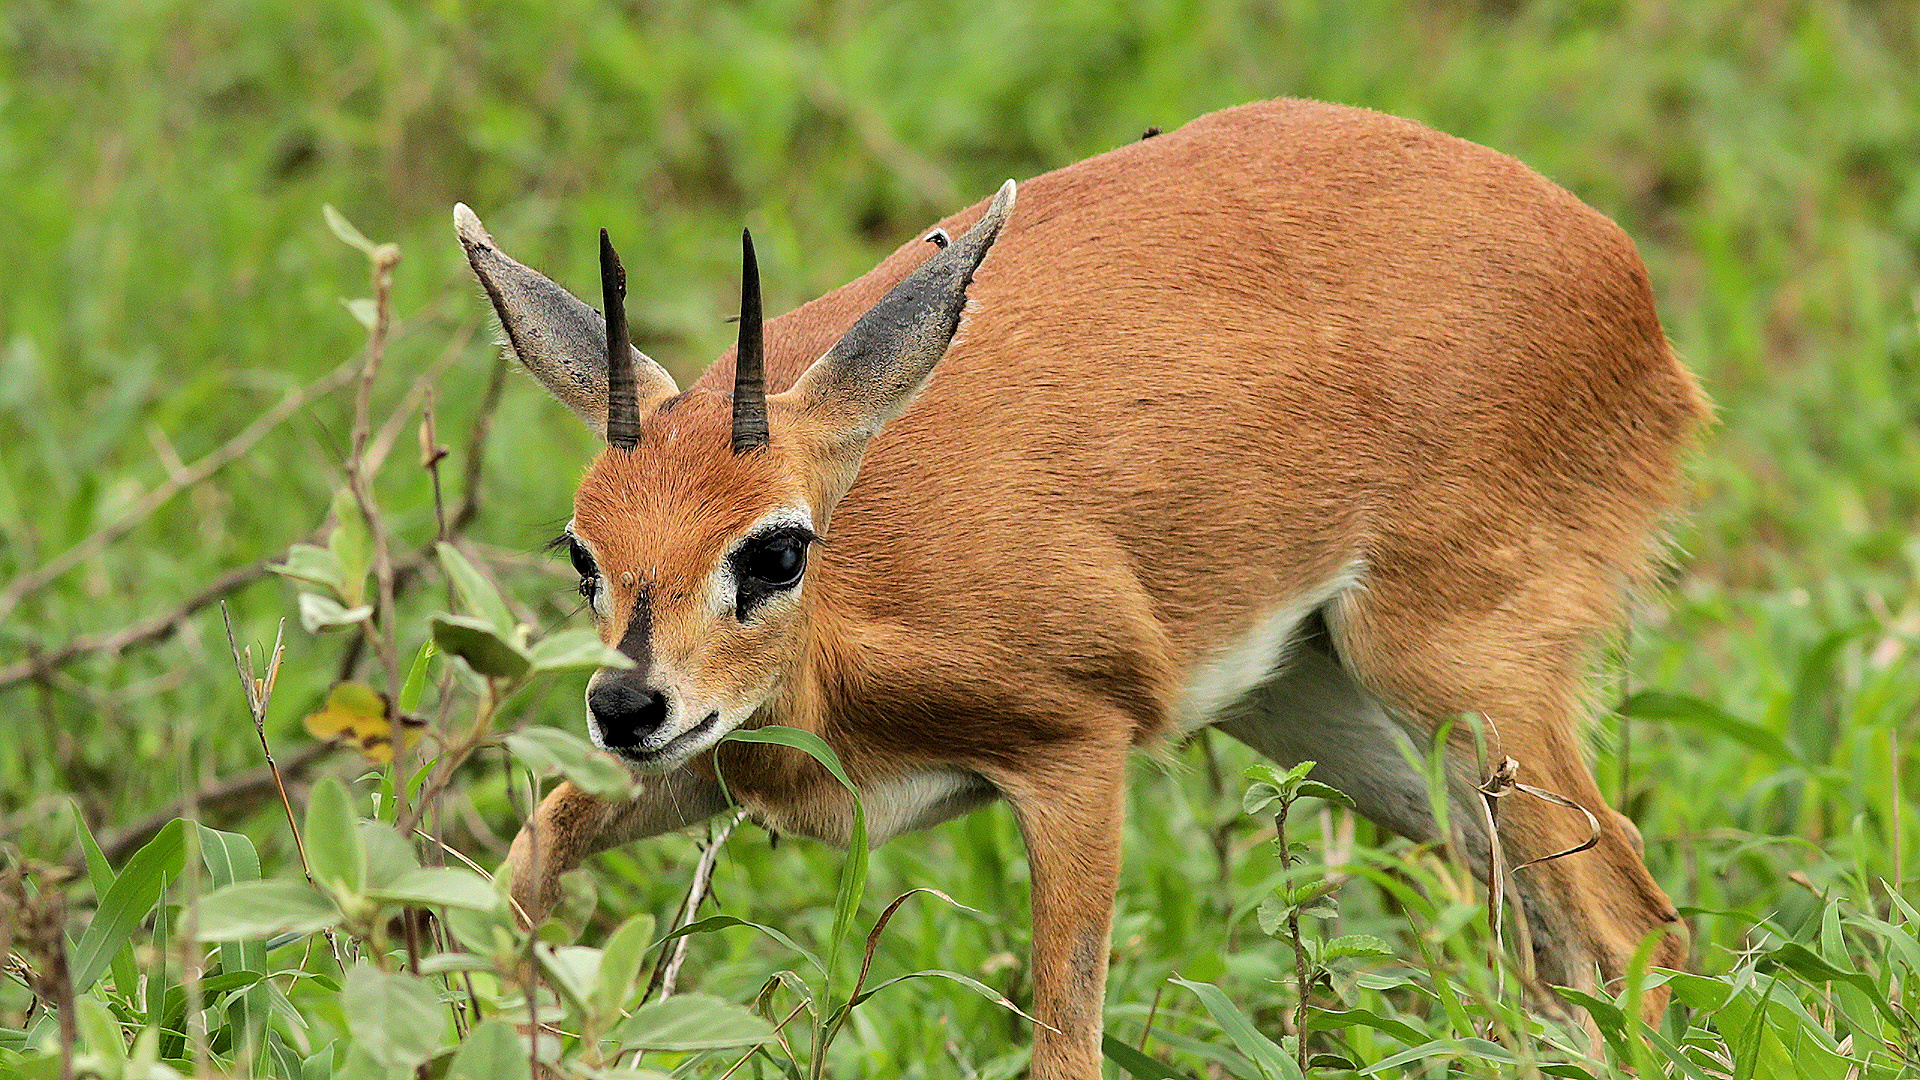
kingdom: Animalia
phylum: Chordata
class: Mammalia
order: Artiodactyla
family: Bovidae
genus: Raphicerus
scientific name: Raphicerus campestris
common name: Steenbok
